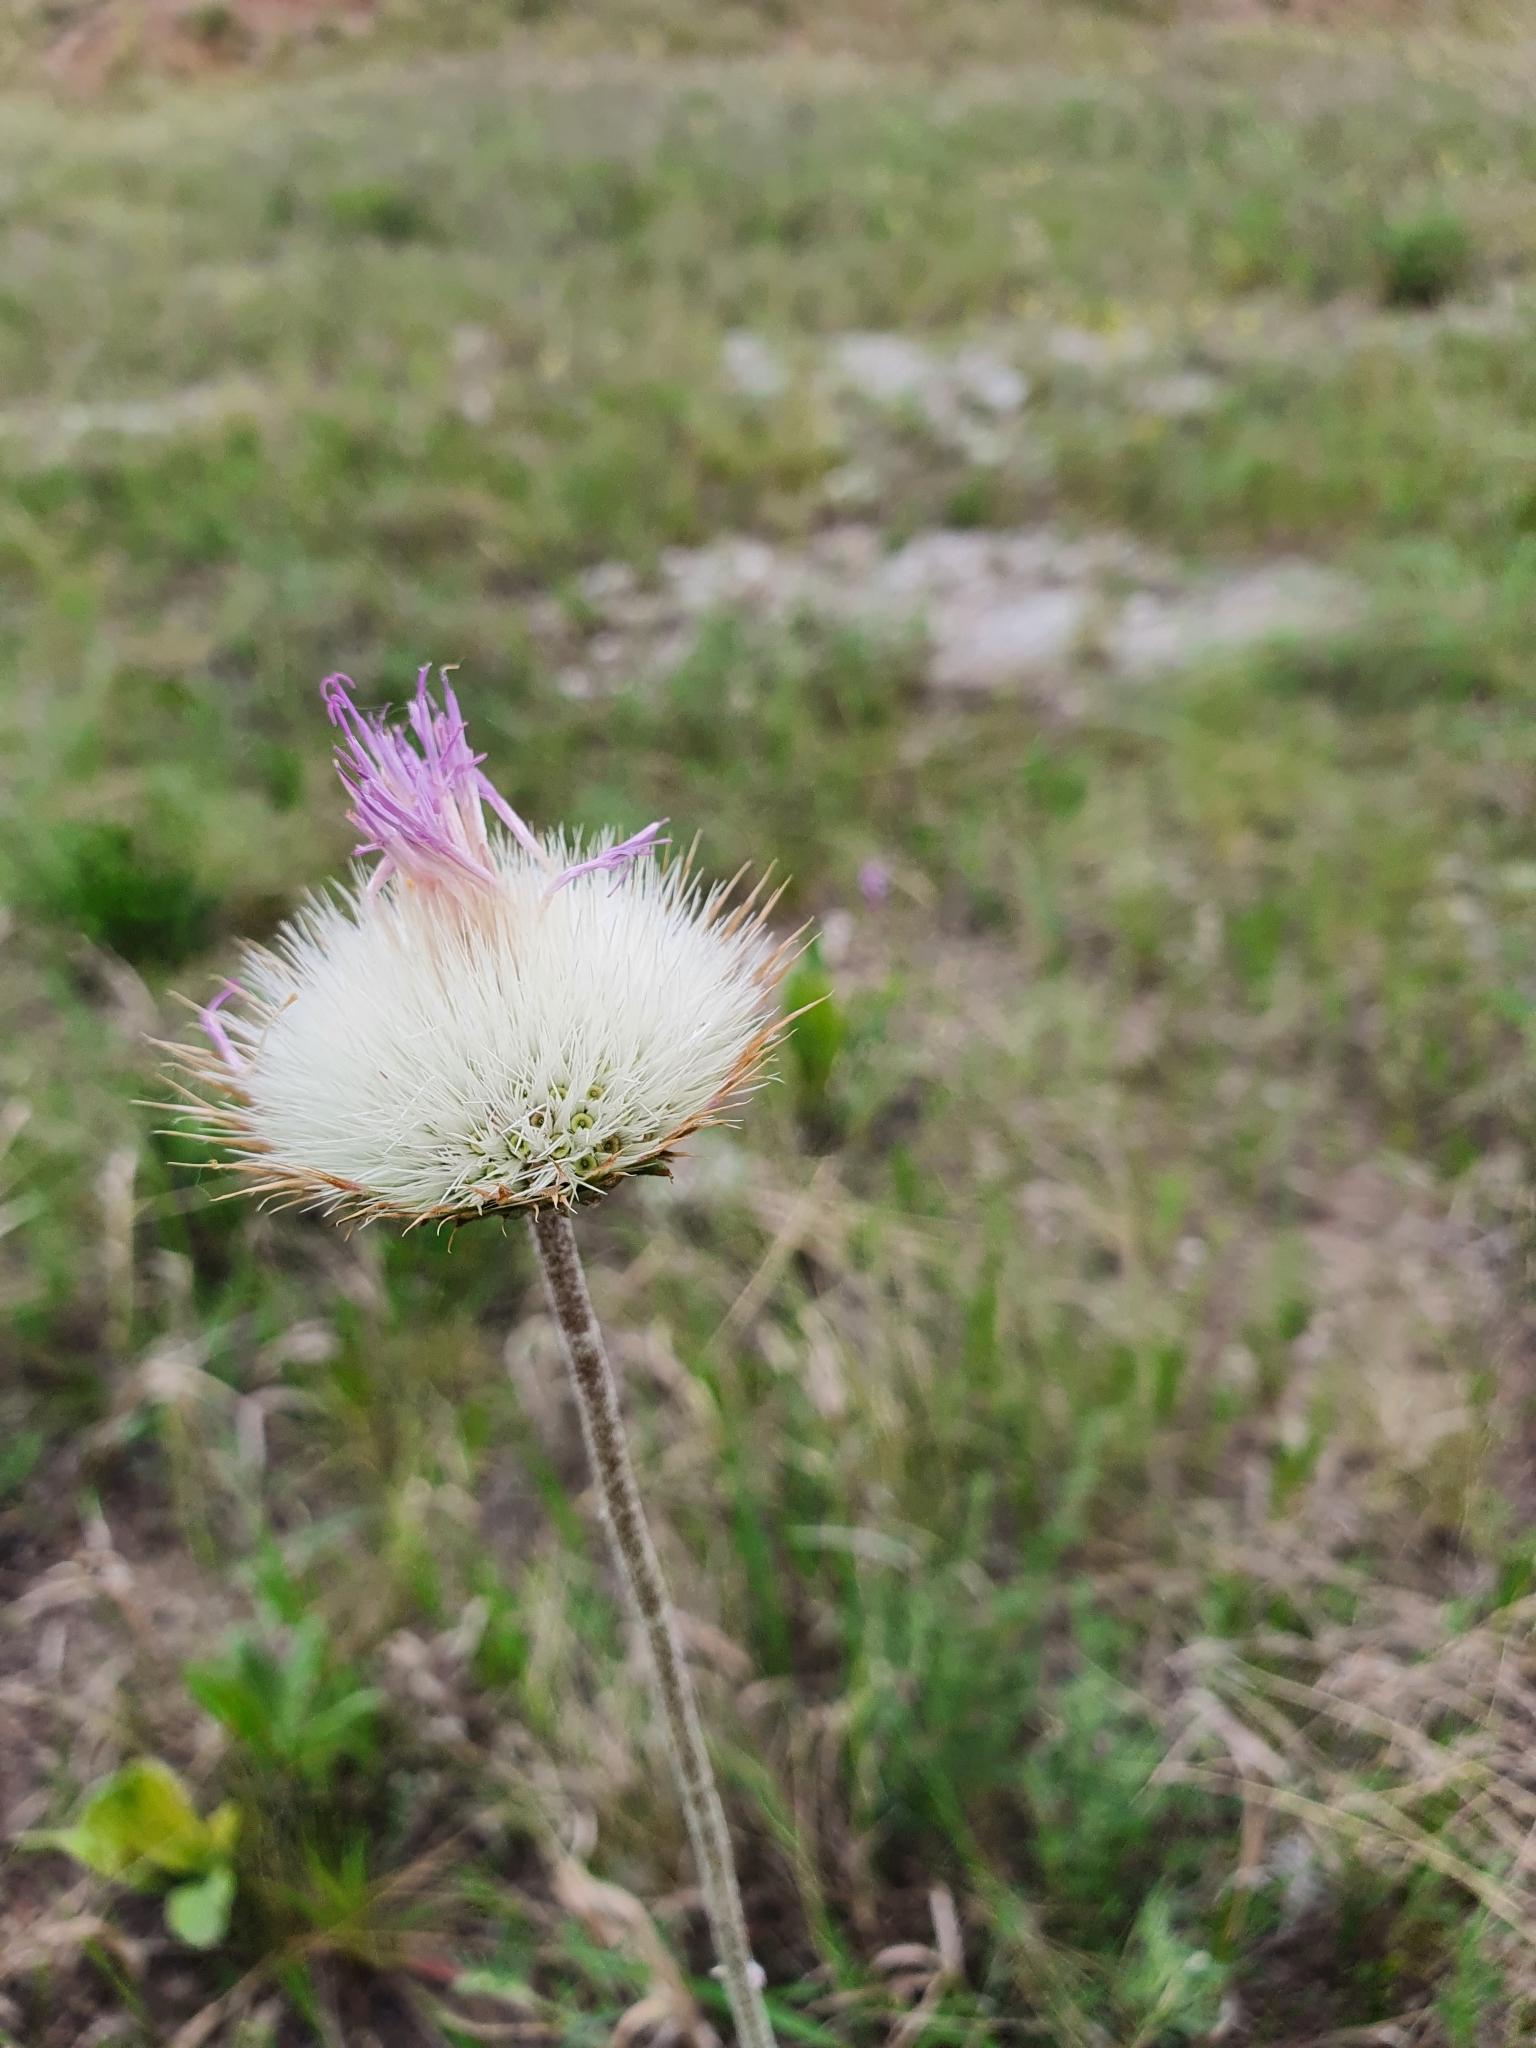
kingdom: Plantae
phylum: Tracheophyta
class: Magnoliopsida
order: Asterales
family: Asteraceae
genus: Jurinea
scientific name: Jurinea ledebourii
